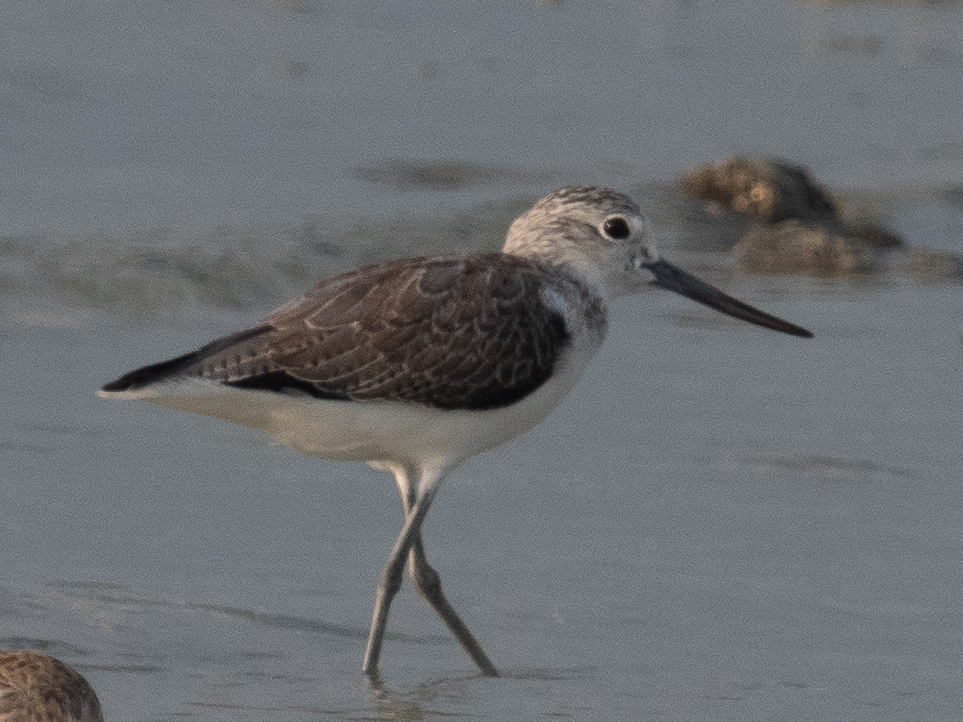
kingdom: Animalia
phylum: Chordata
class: Aves
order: Charadriiformes
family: Scolopacidae
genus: Tringa
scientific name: Tringa nebularia
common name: Common greenshank
